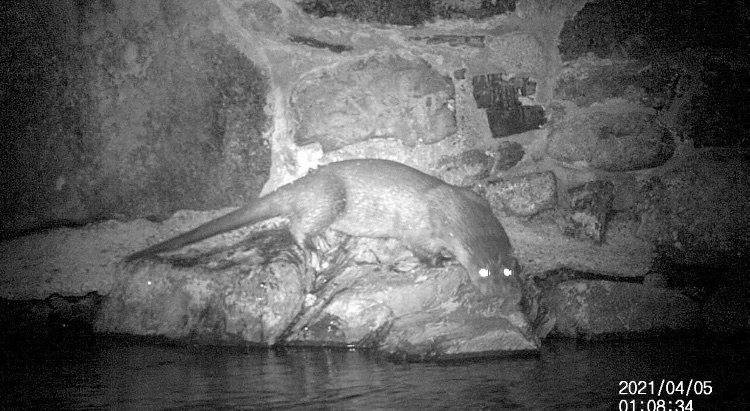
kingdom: Animalia
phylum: Chordata
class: Mammalia
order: Carnivora
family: Mustelidae
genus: Lutra
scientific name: Lutra lutra
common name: European otter
